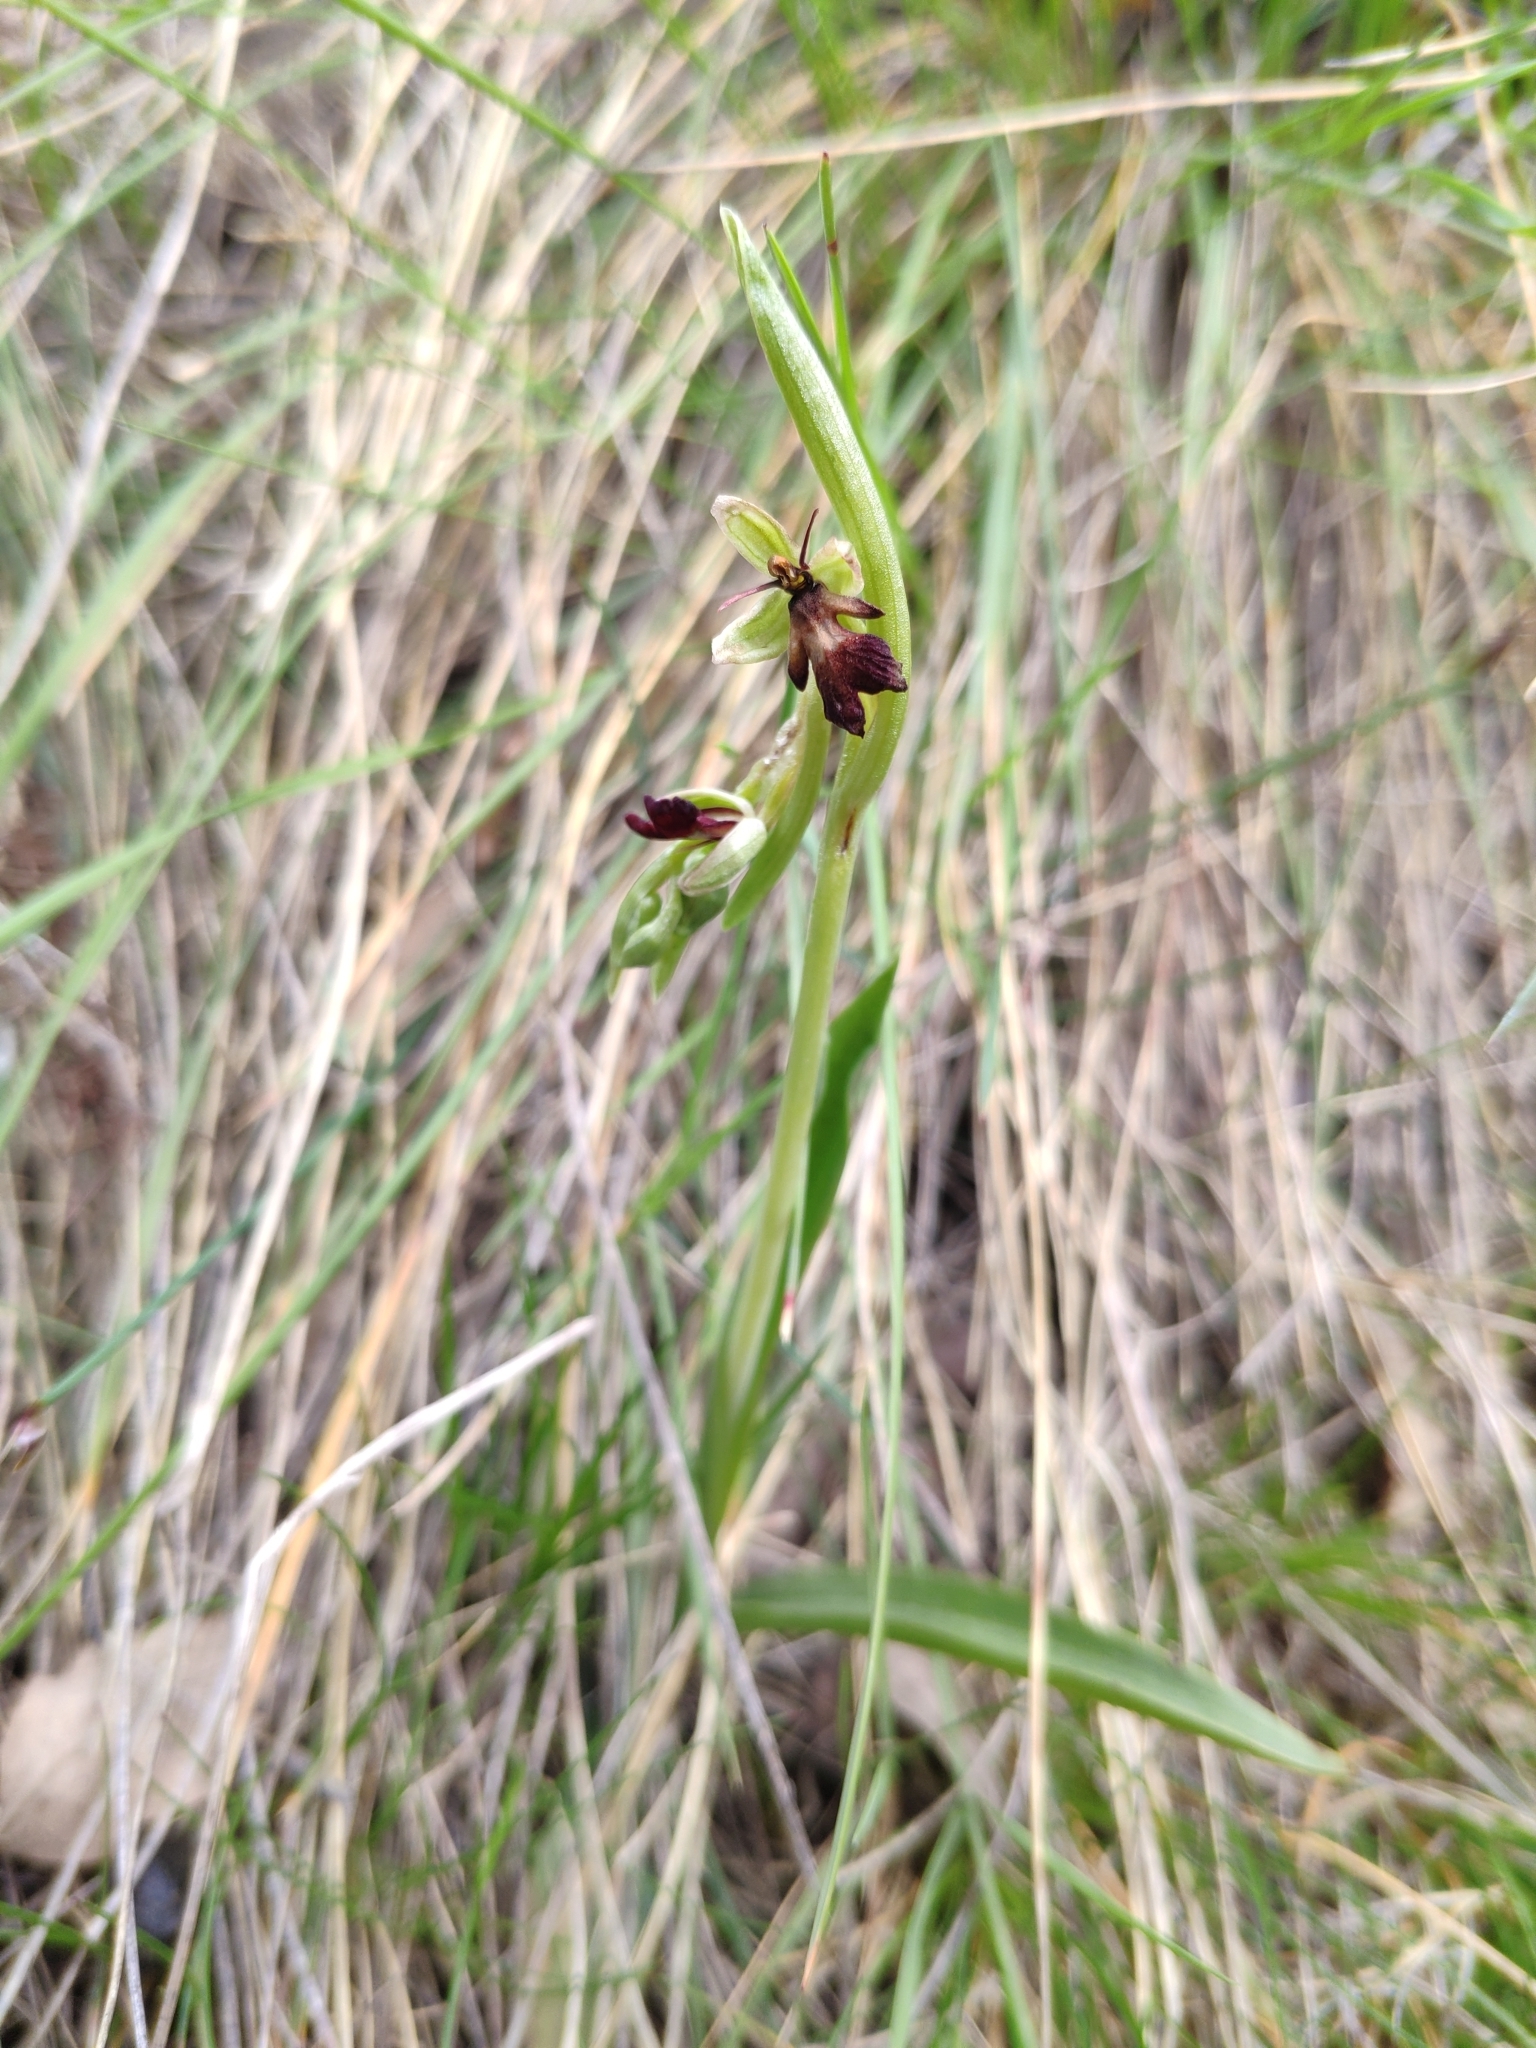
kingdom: Plantae
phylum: Tracheophyta
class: Liliopsida
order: Asparagales
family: Orchidaceae
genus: Ophrys
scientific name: Ophrys insectifera
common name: Fly orchid
